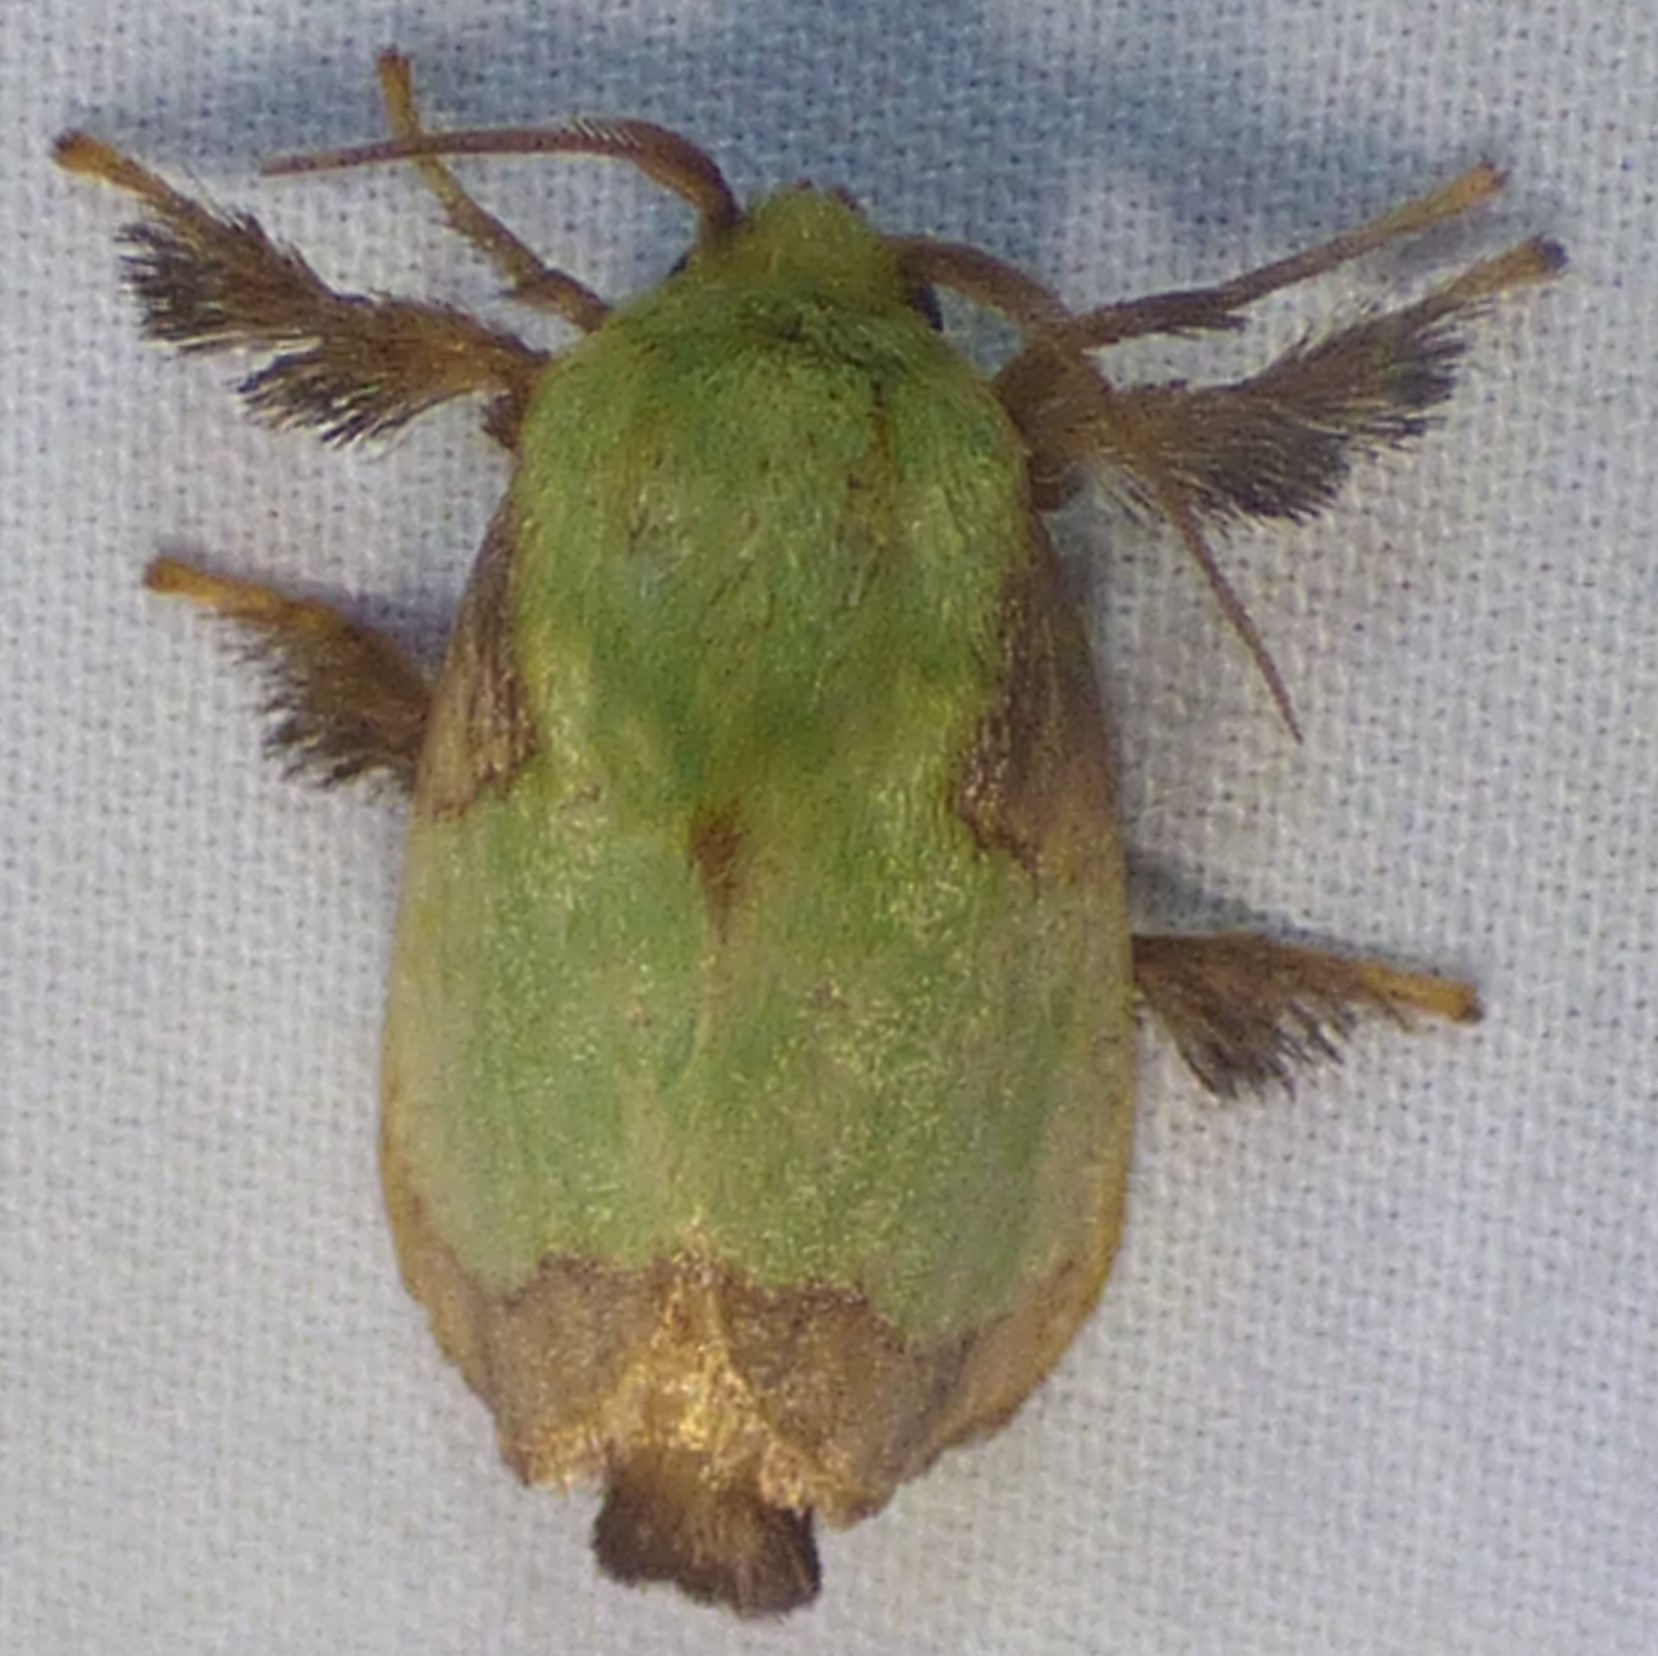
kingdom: Animalia
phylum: Arthropoda
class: Insecta
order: Lepidoptera
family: Limacodidae
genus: Parasa
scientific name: Parasa indetermina
